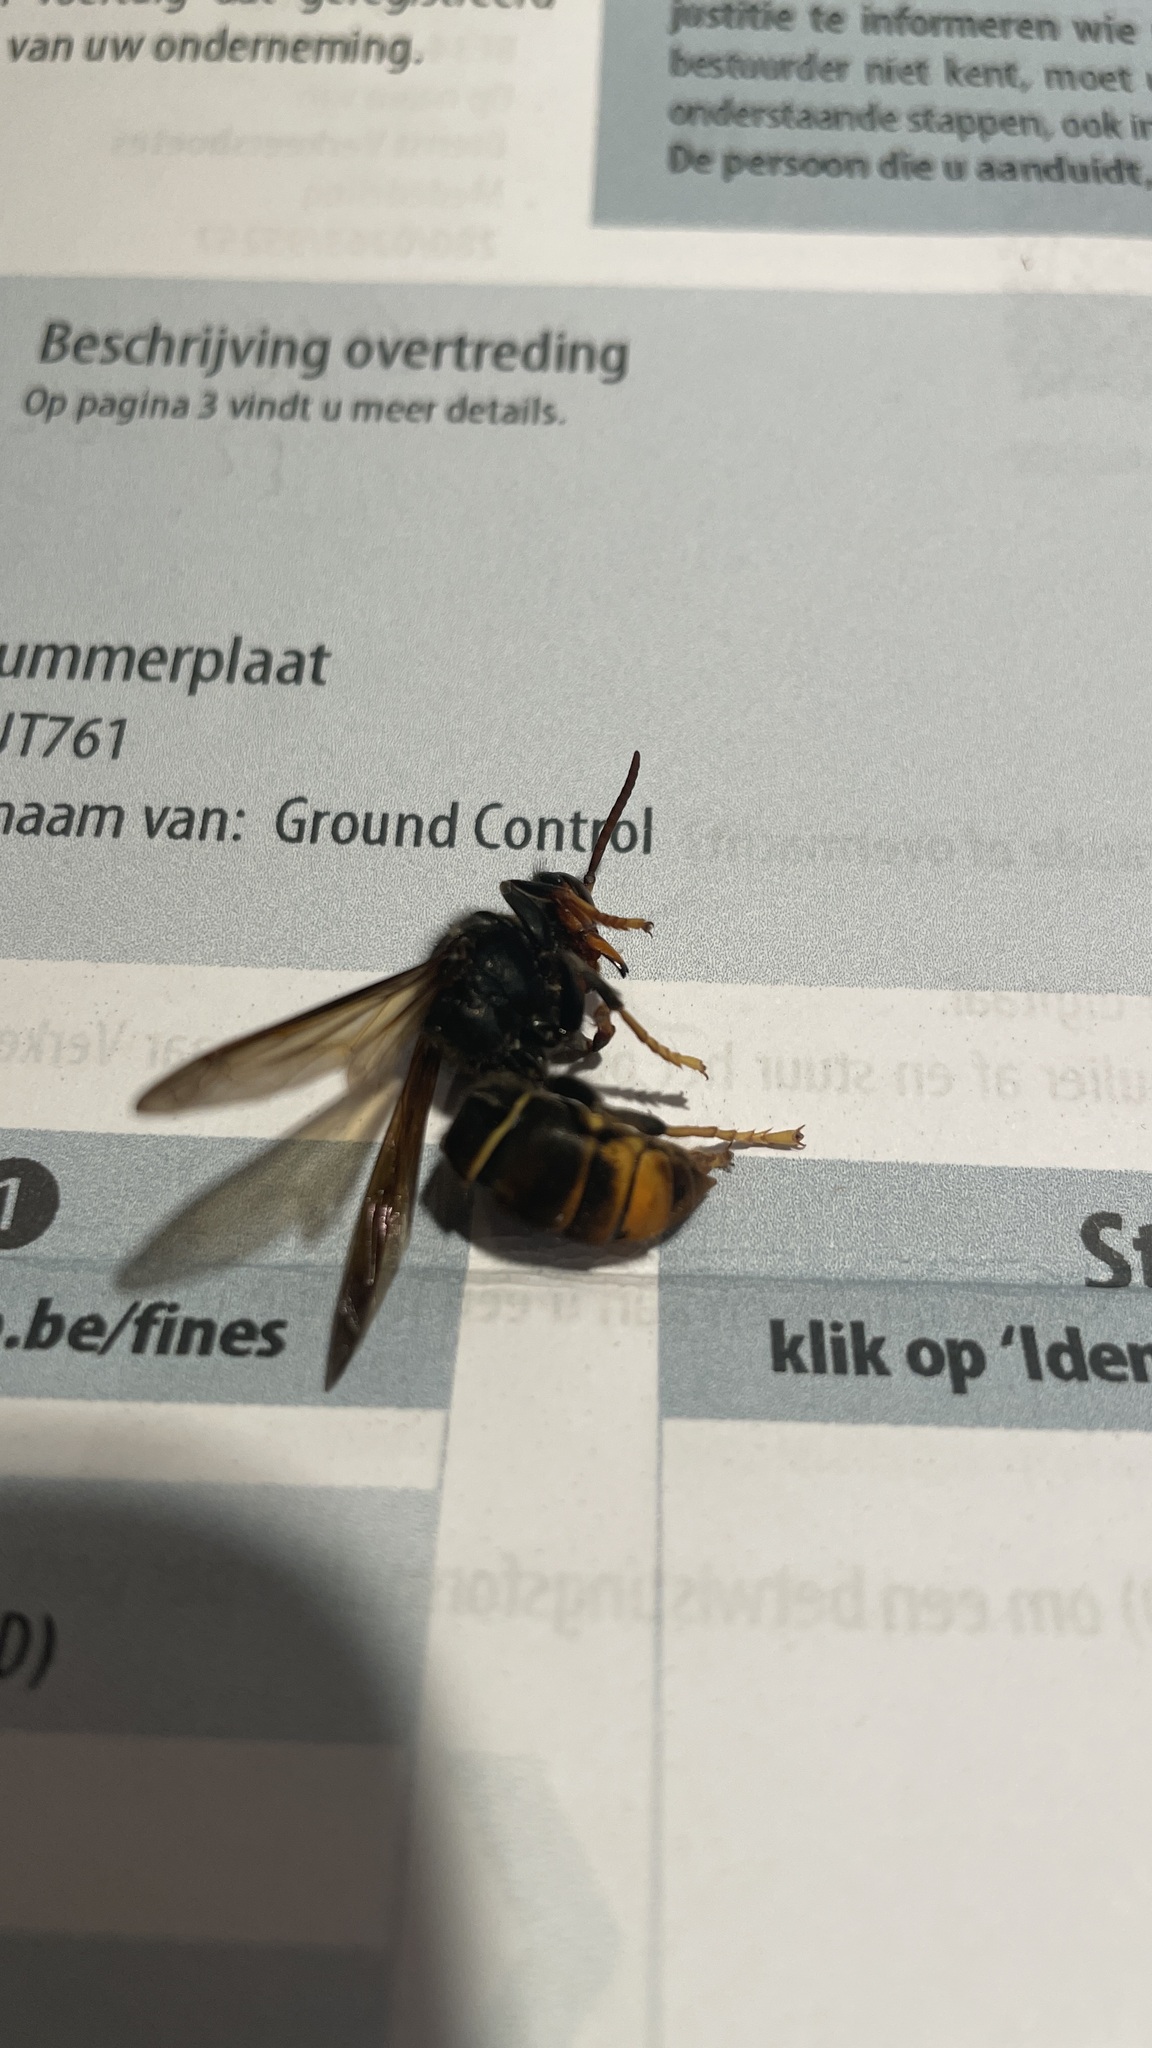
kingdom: Animalia
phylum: Arthropoda
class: Insecta
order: Hymenoptera
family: Vespidae
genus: Vespa
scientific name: Vespa velutina
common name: Asian hornet
